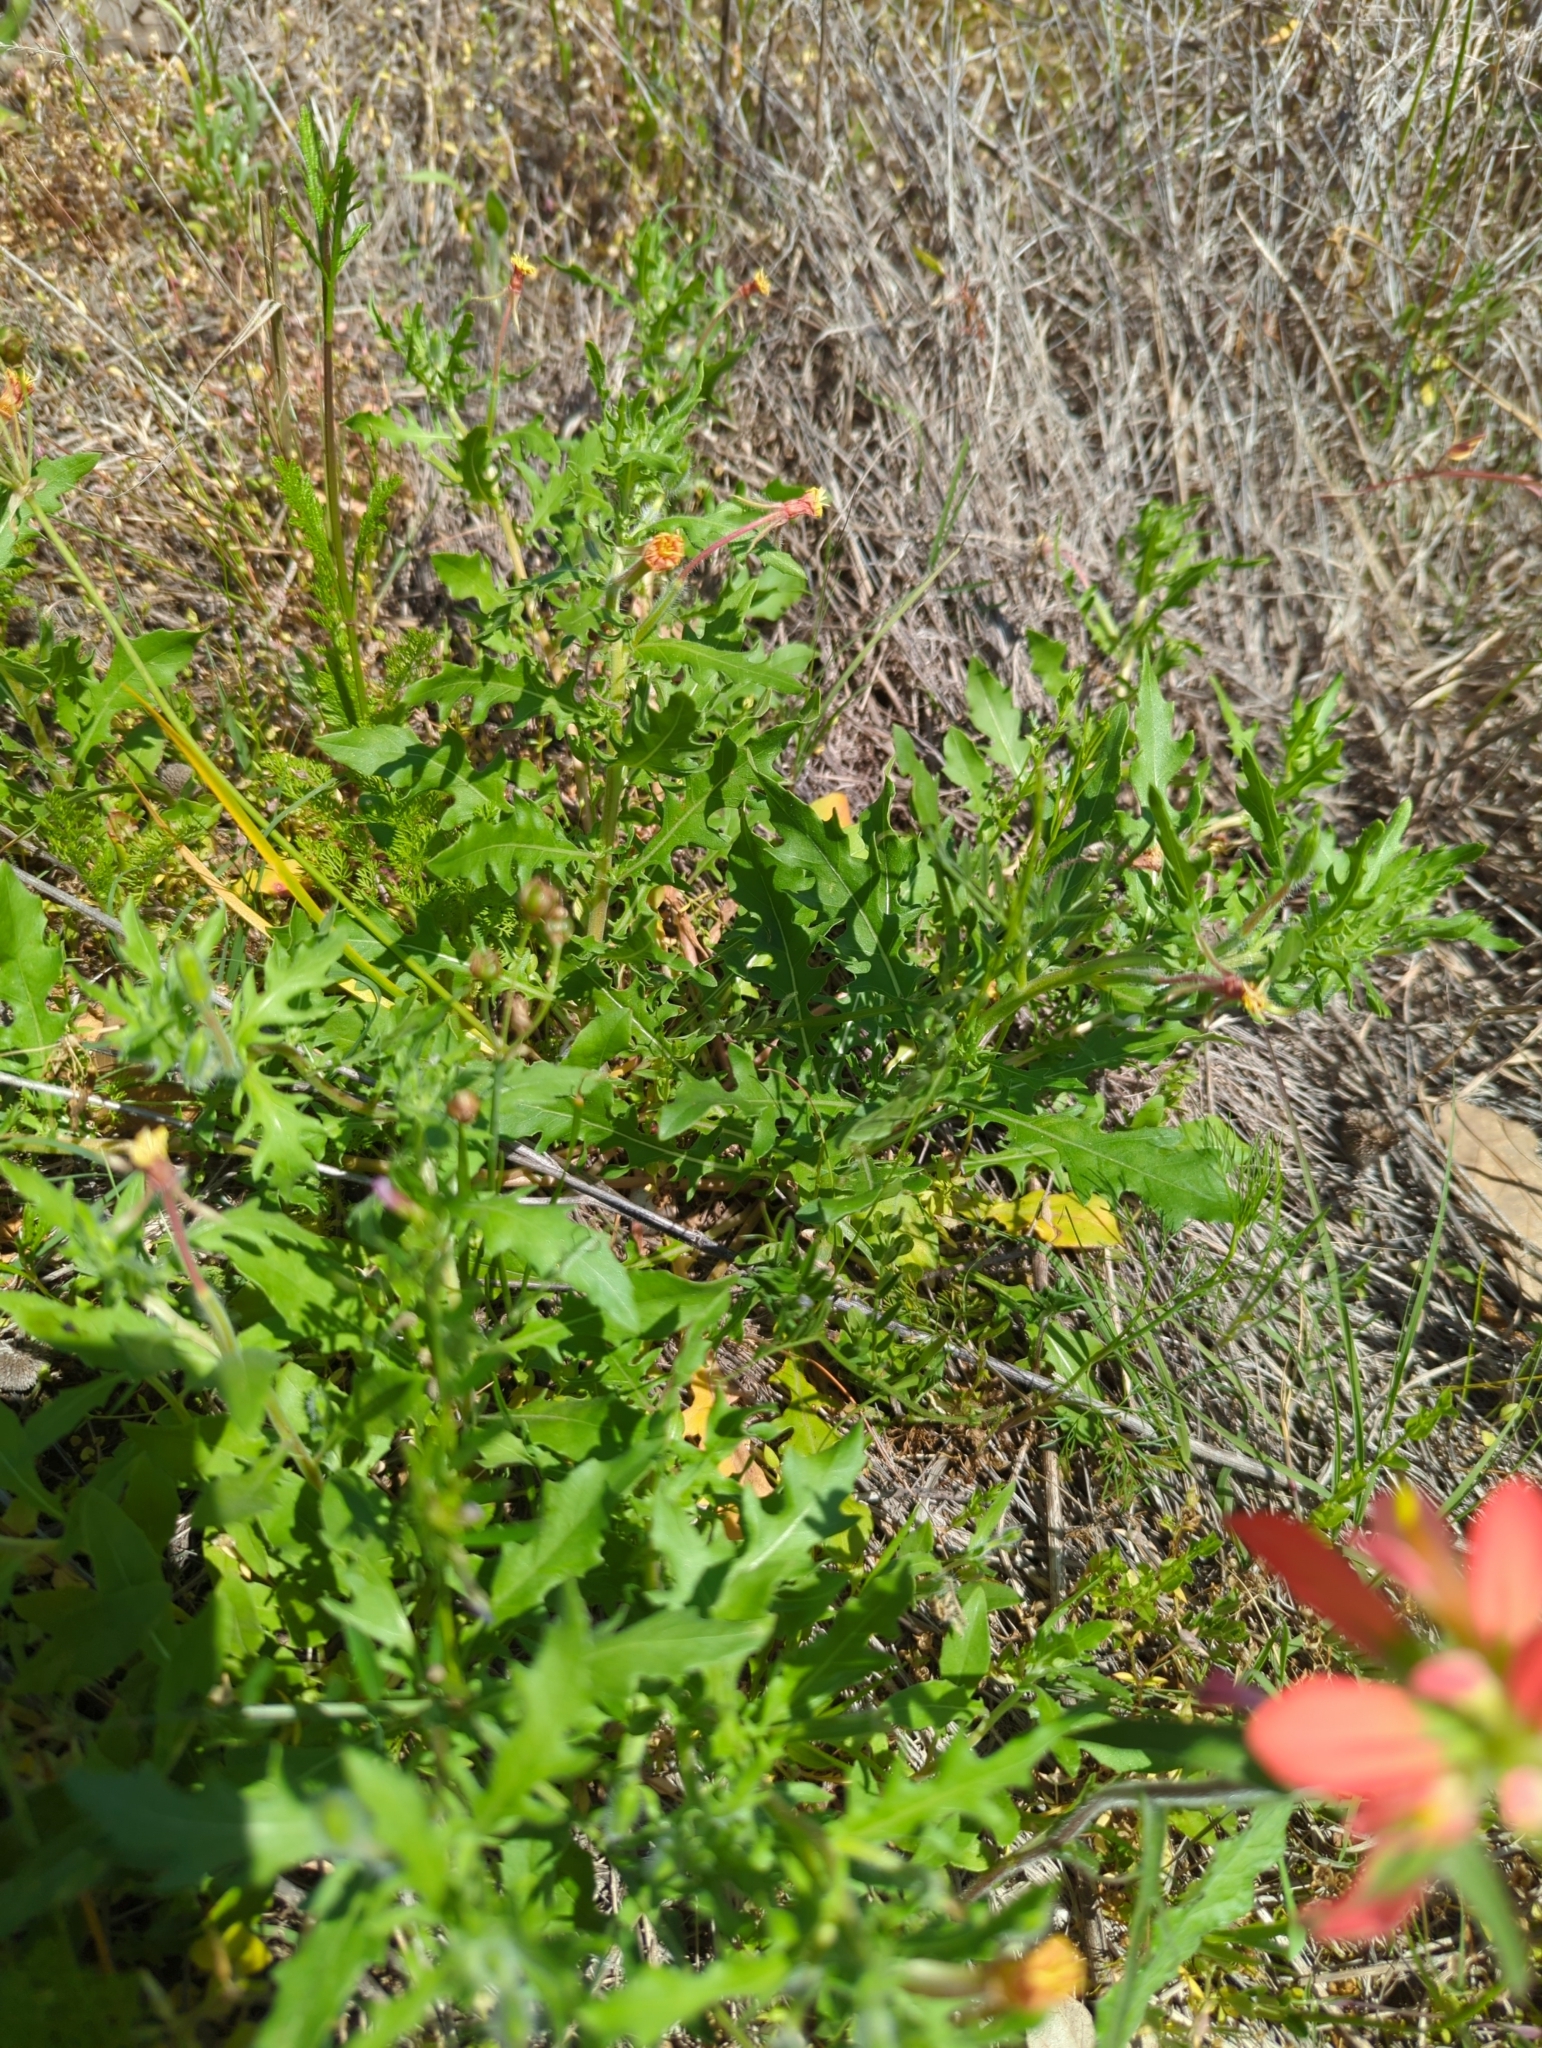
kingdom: Plantae
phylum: Tracheophyta
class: Magnoliopsida
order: Myrtales
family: Onagraceae
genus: Oenothera
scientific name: Oenothera laciniata
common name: Cut-leaved evening-primrose
